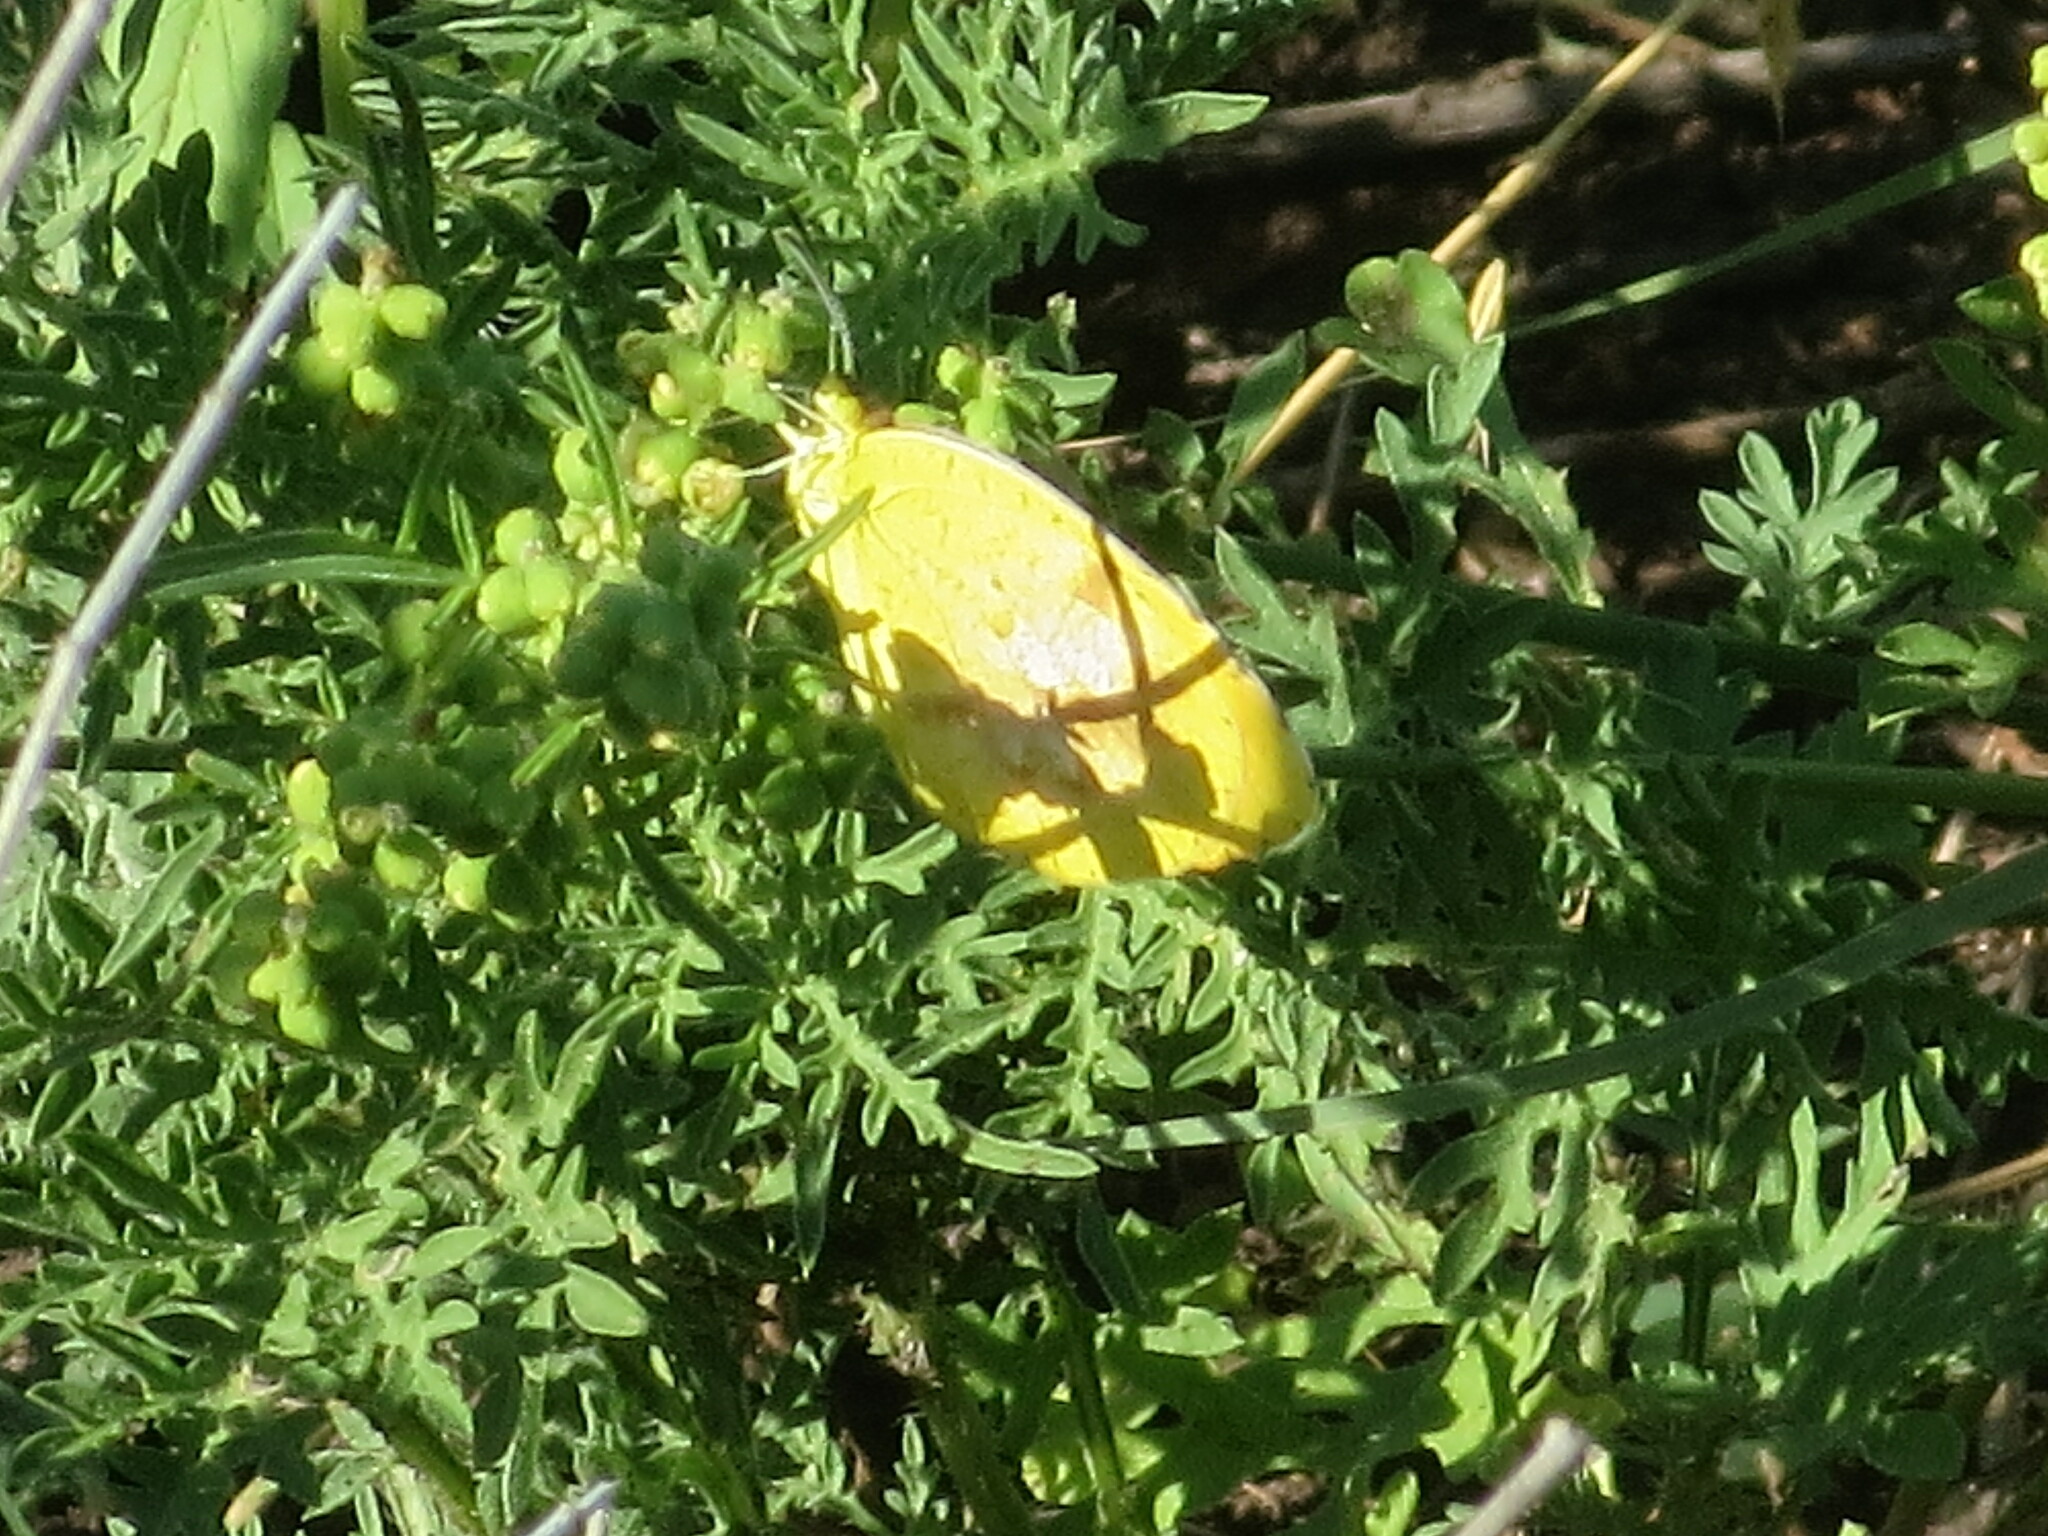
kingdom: Animalia
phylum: Arthropoda
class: Insecta
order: Lepidoptera
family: Pieridae
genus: Abaeis
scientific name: Abaeis nicippe
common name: Sleepy orange
